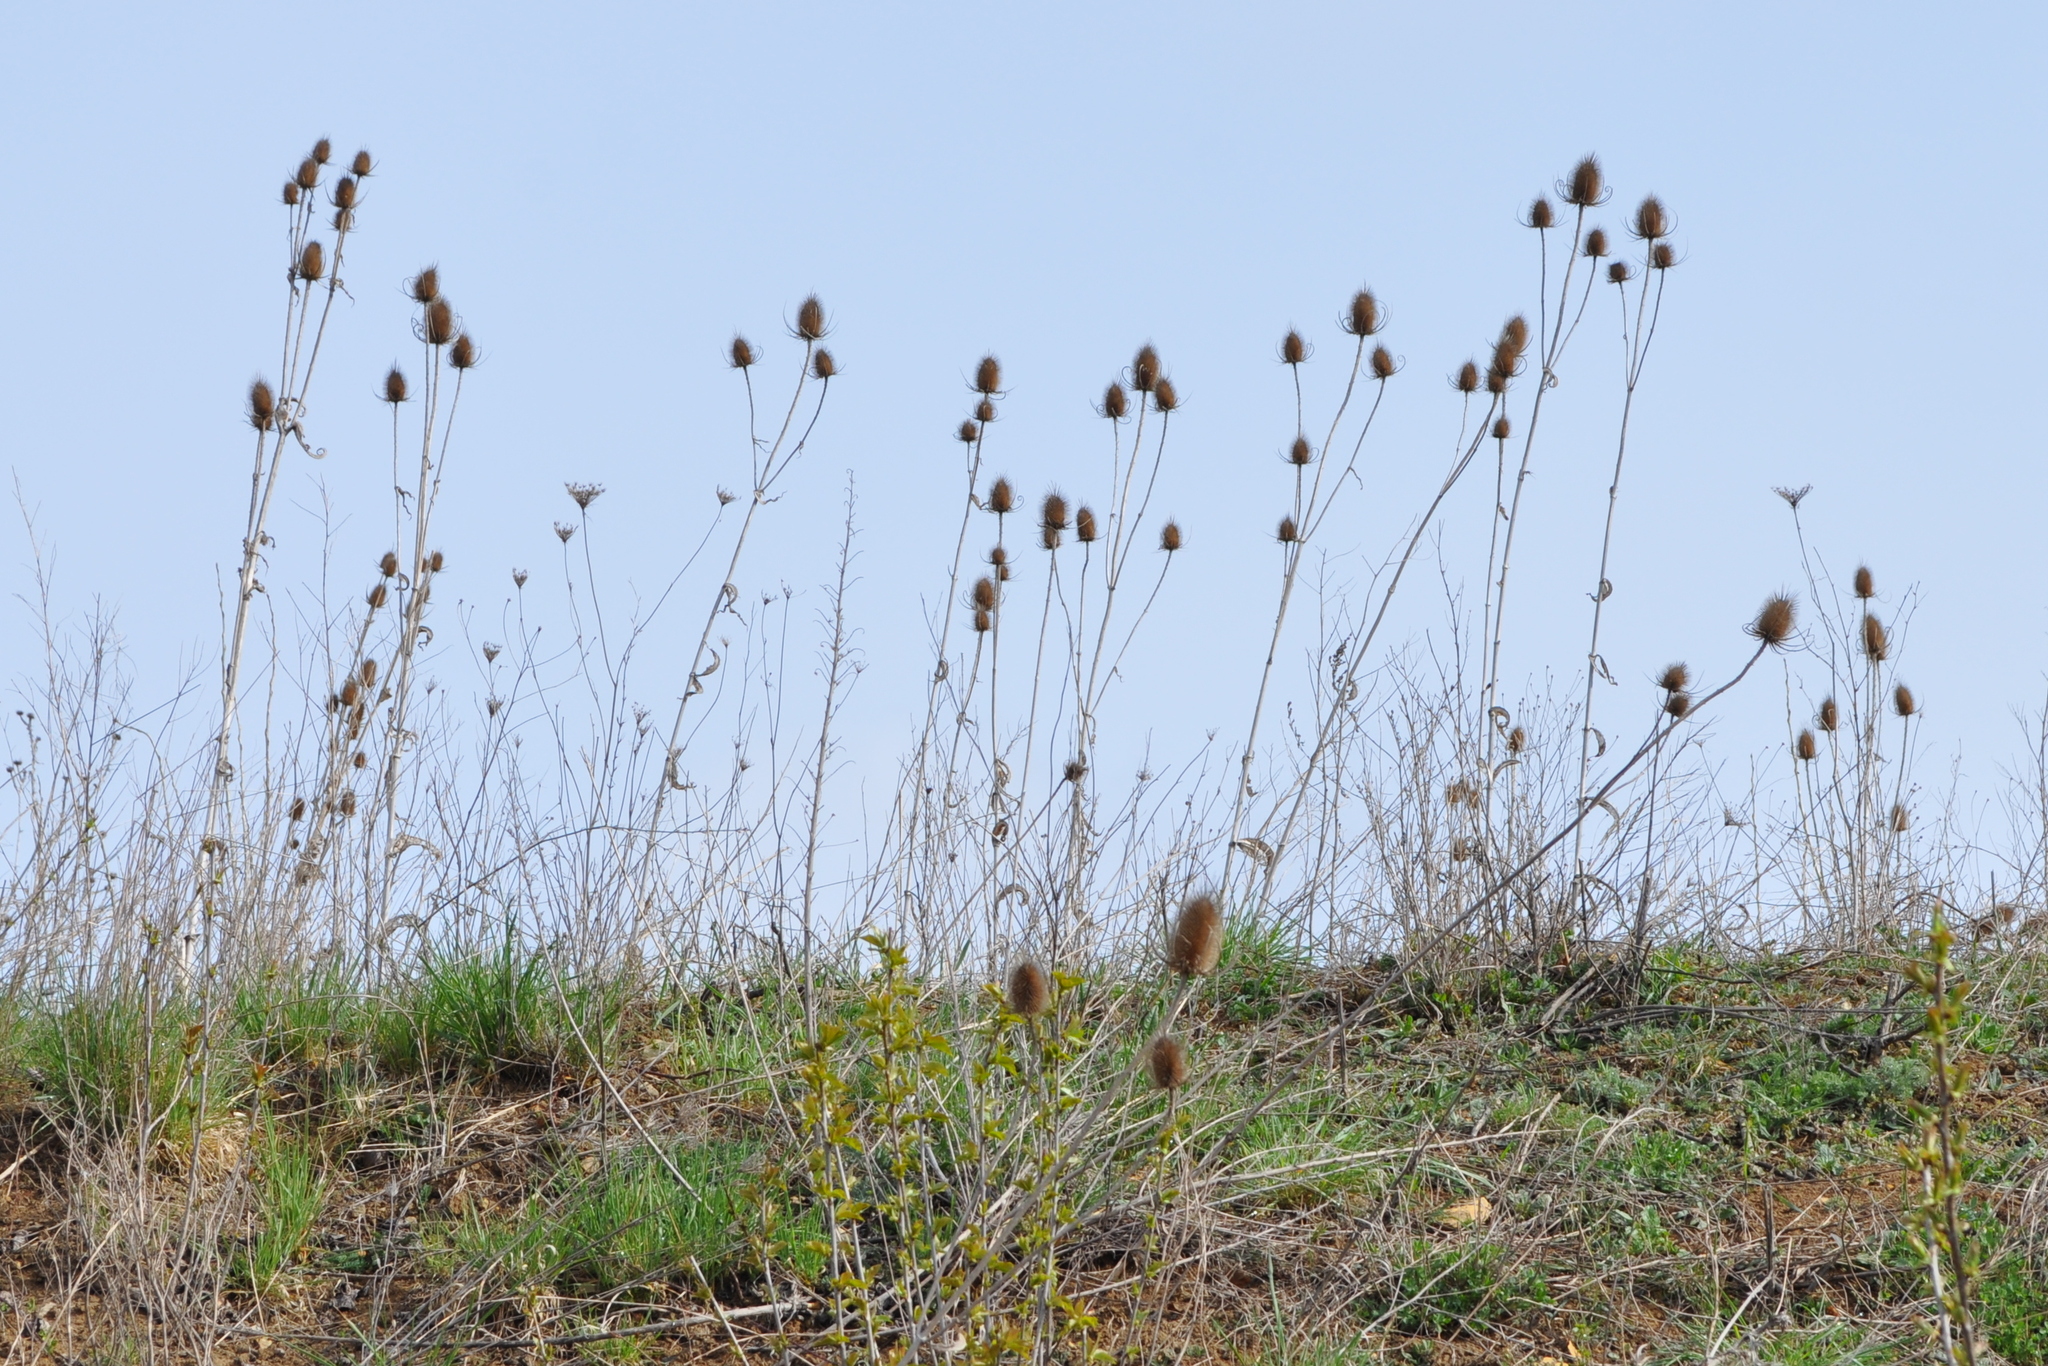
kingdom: Plantae
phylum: Tracheophyta
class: Magnoliopsida
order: Dipsacales
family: Caprifoliaceae
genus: Dipsacus
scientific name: Dipsacus fullonum
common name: Teasel
